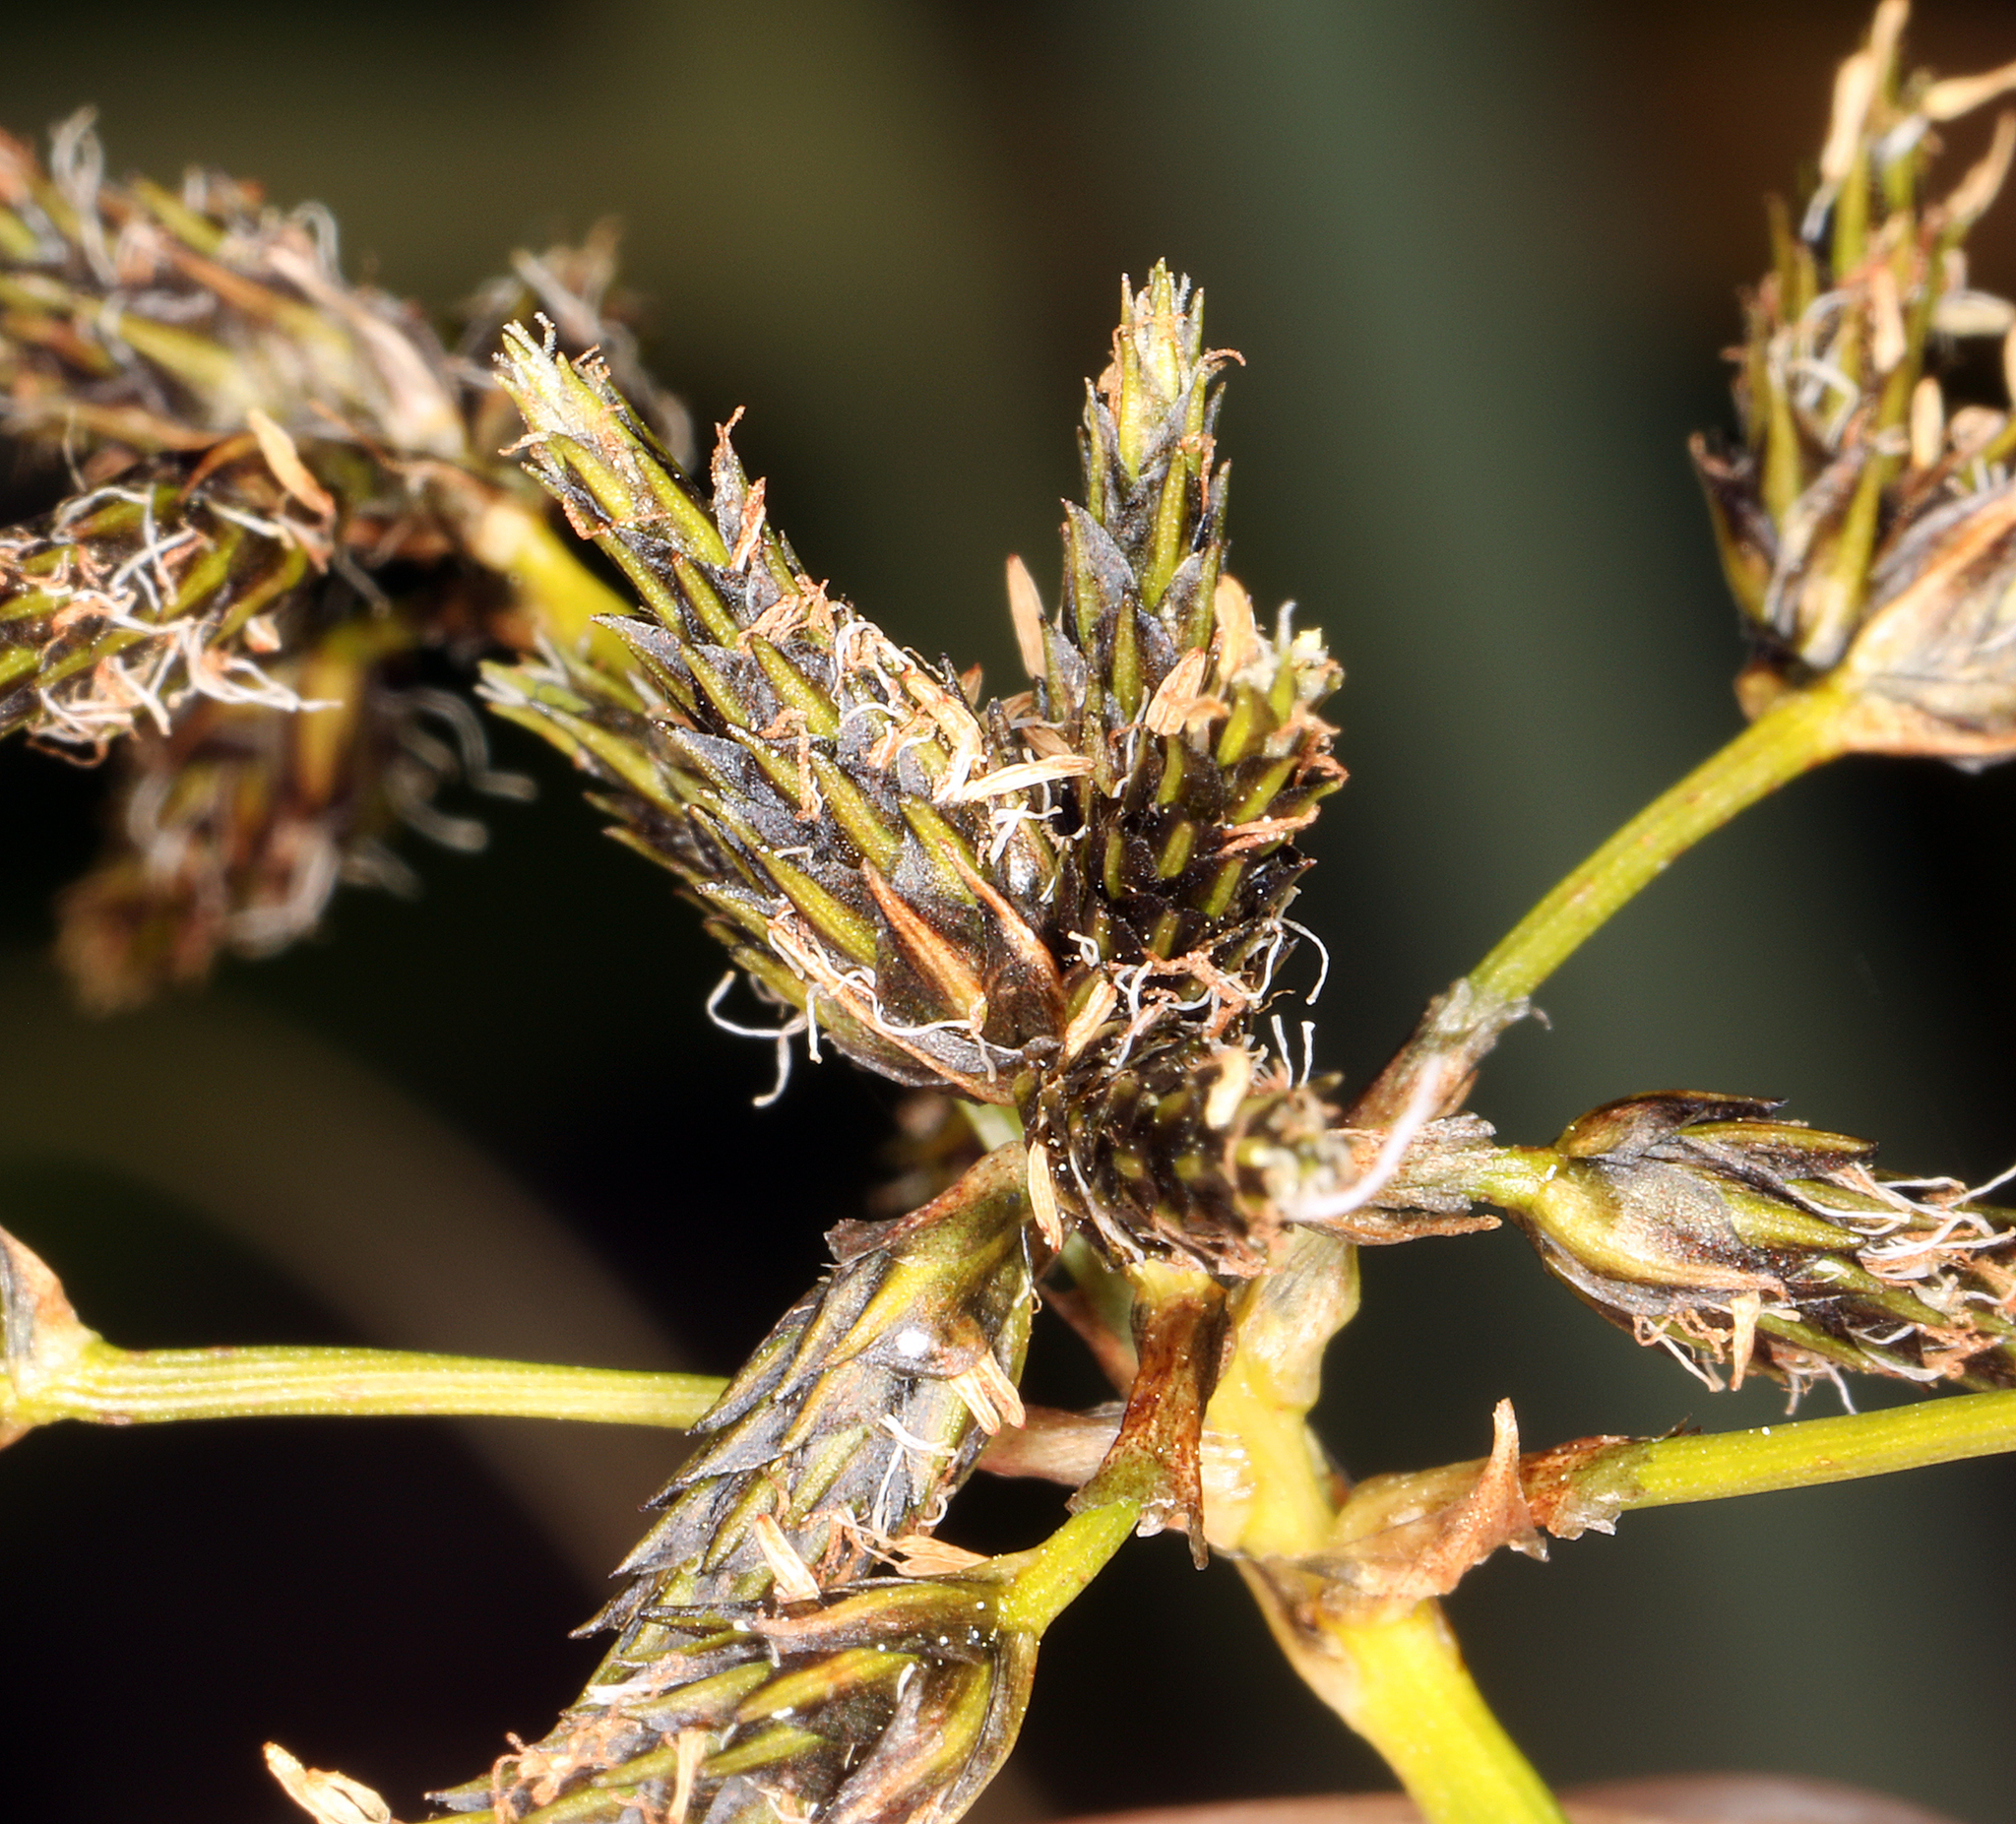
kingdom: Plantae
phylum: Tracheophyta
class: Liliopsida
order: Poales
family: Cyperaceae
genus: Scirpus
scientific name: Scirpus microcarpus
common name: Panicled bulrush
